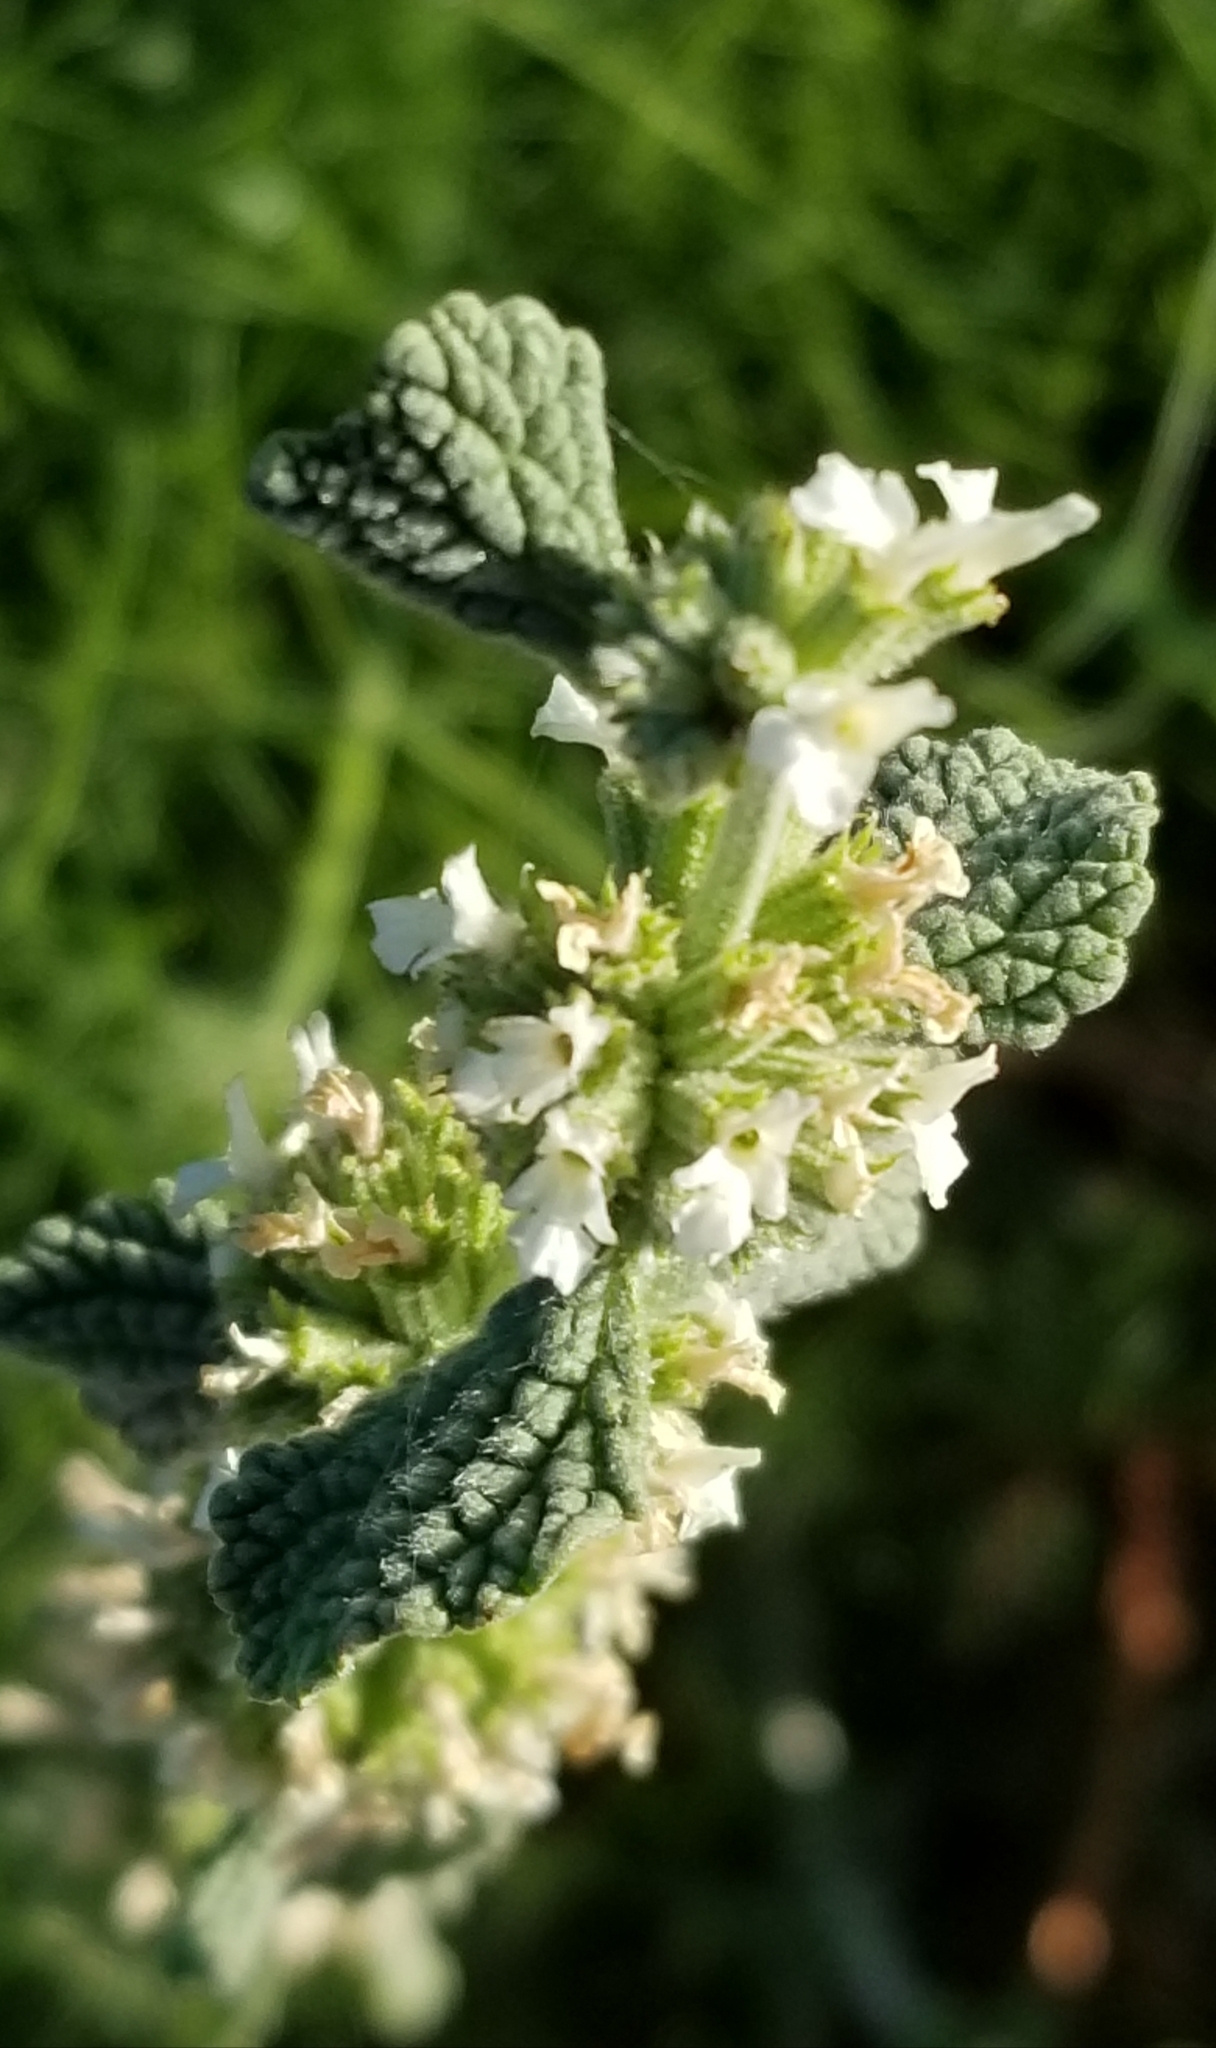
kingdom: Plantae
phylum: Tracheophyta
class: Magnoliopsida
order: Lamiales
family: Lamiaceae
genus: Marrubium
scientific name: Marrubium vulgare
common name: Horehound
